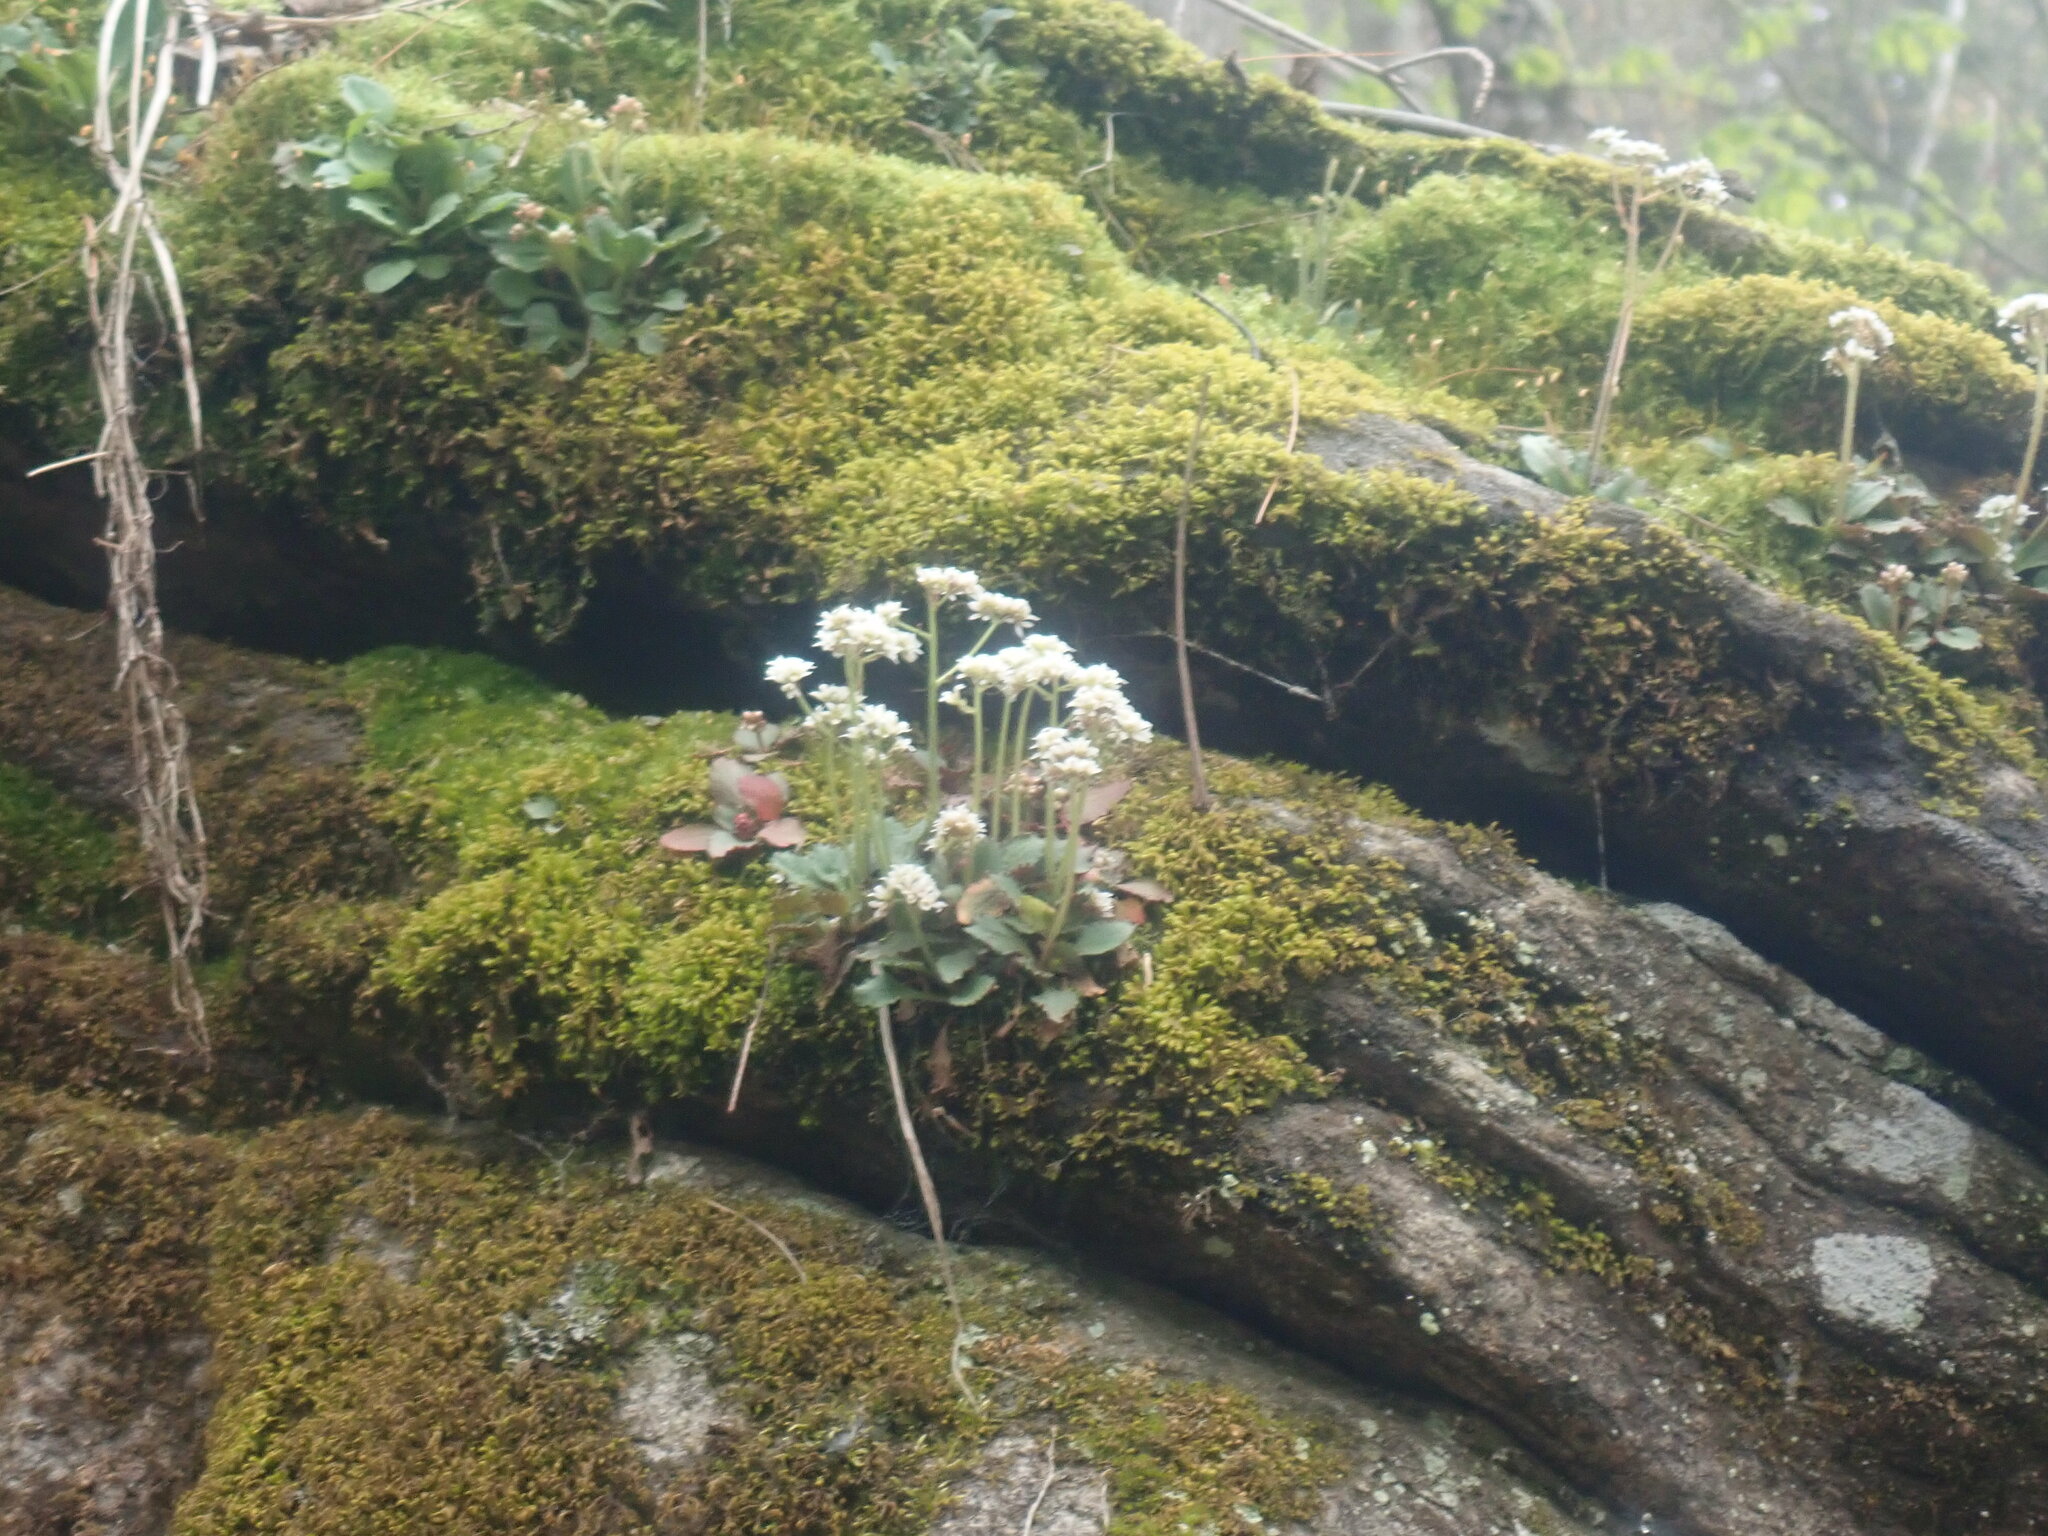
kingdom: Plantae
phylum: Tracheophyta
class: Magnoliopsida
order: Saxifragales
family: Saxifragaceae
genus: Micranthes
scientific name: Micranthes virginiensis
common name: Early saxifrage
